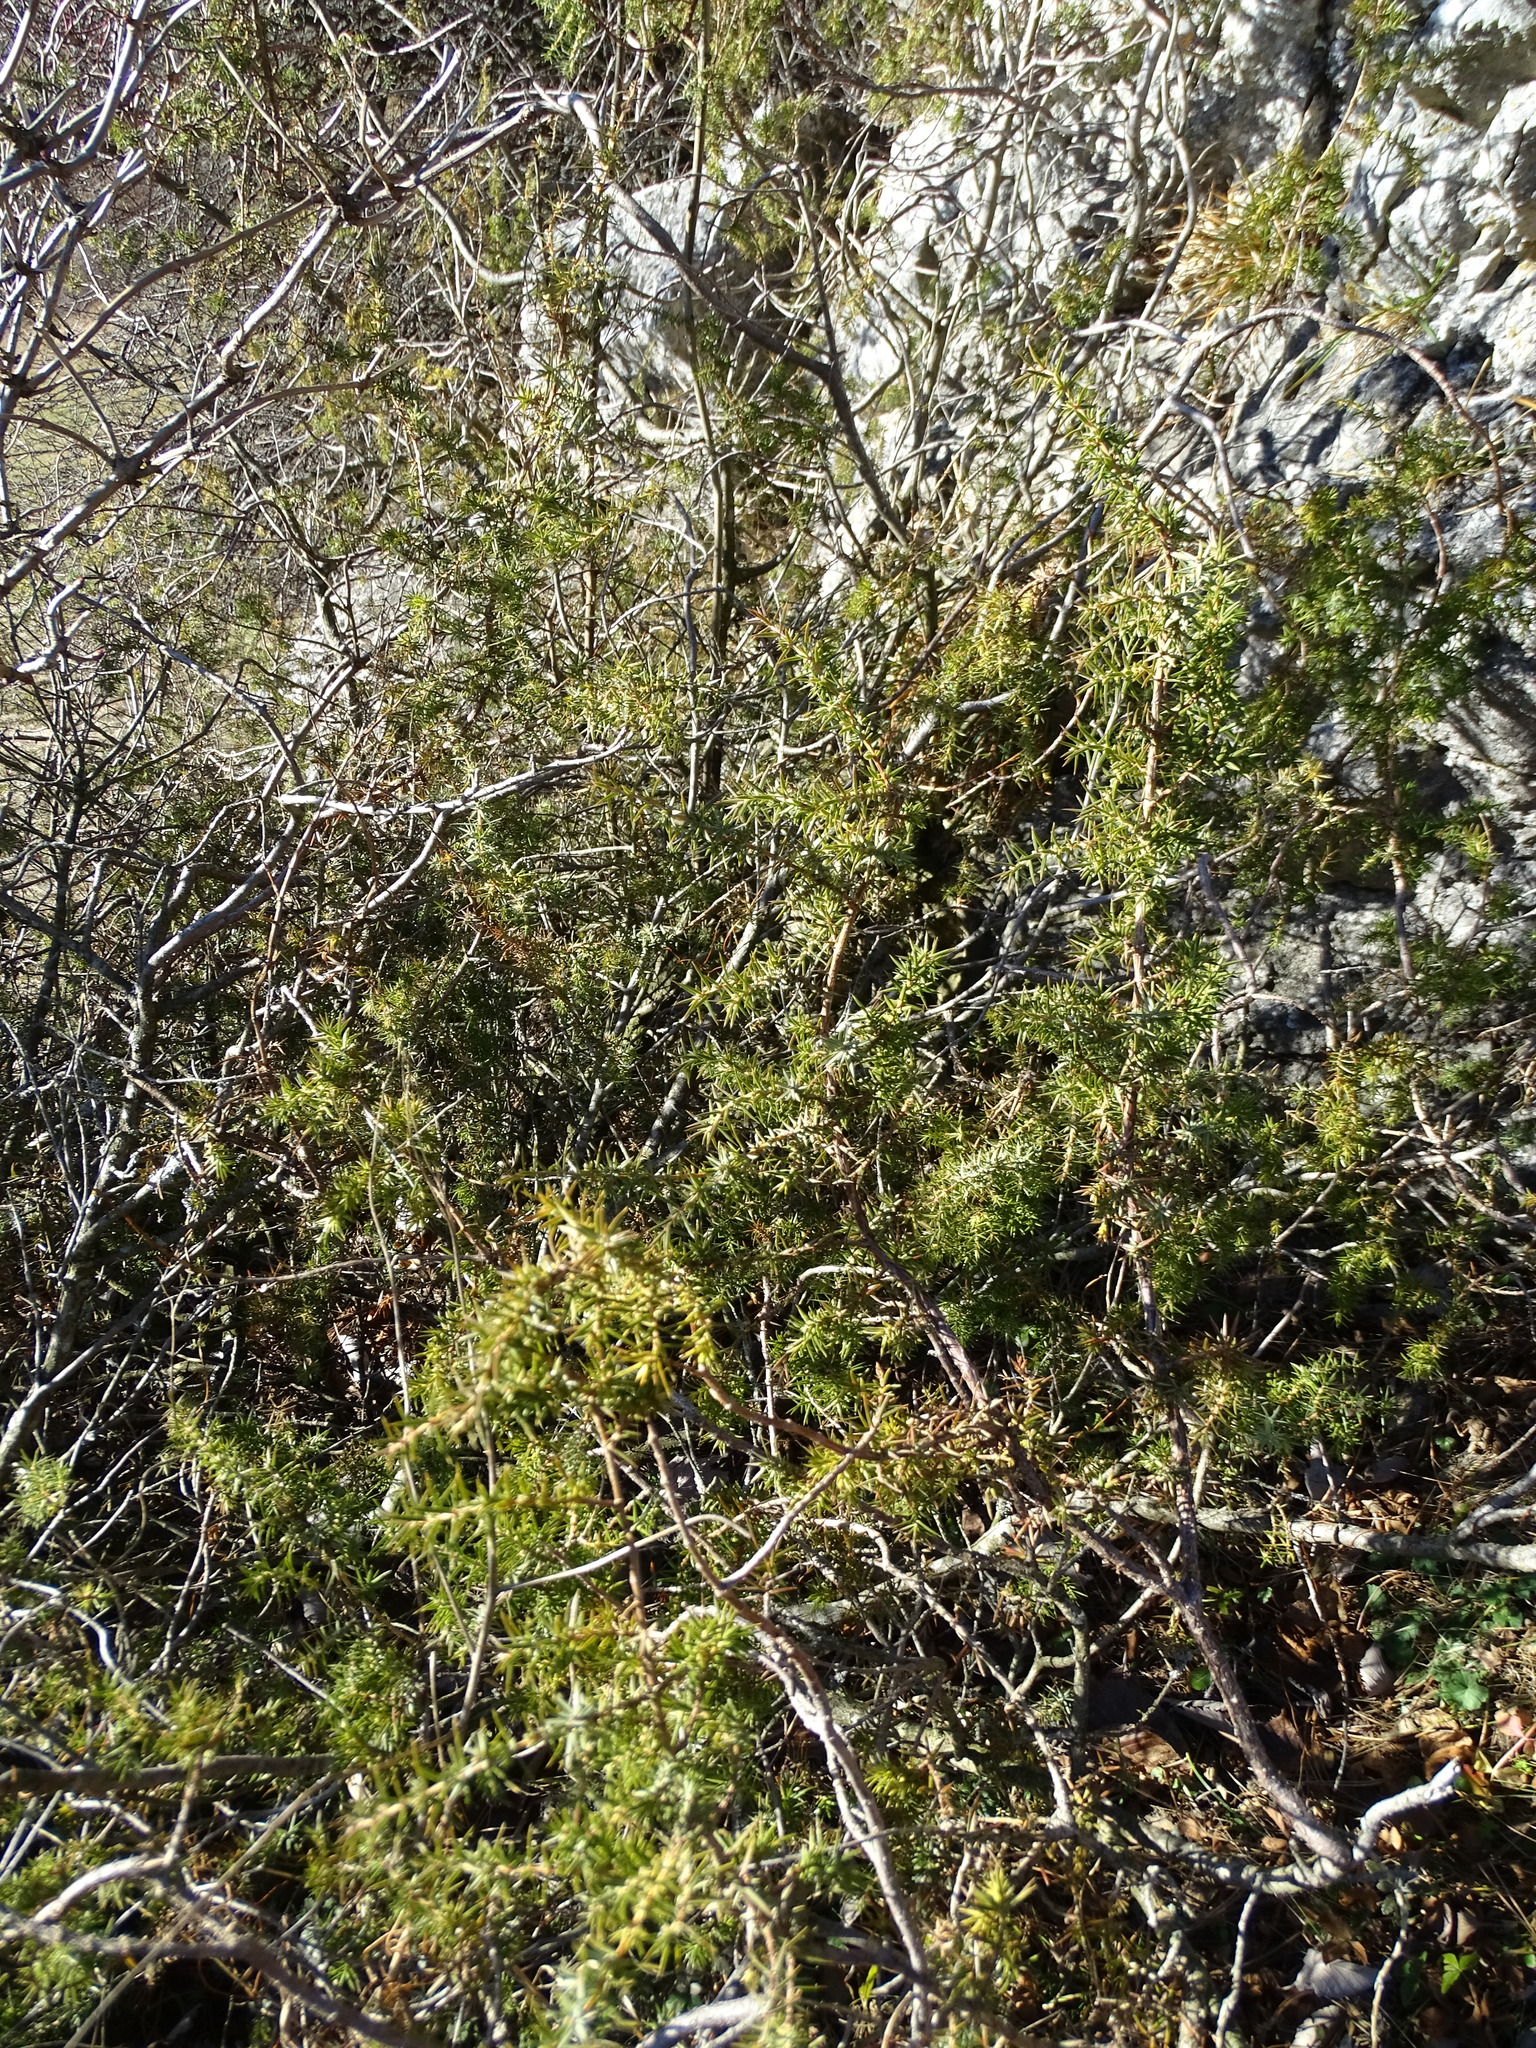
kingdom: Plantae
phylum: Tracheophyta
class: Pinopsida
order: Pinales
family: Cupressaceae
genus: Juniperus
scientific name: Juniperus communis
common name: Common juniper
